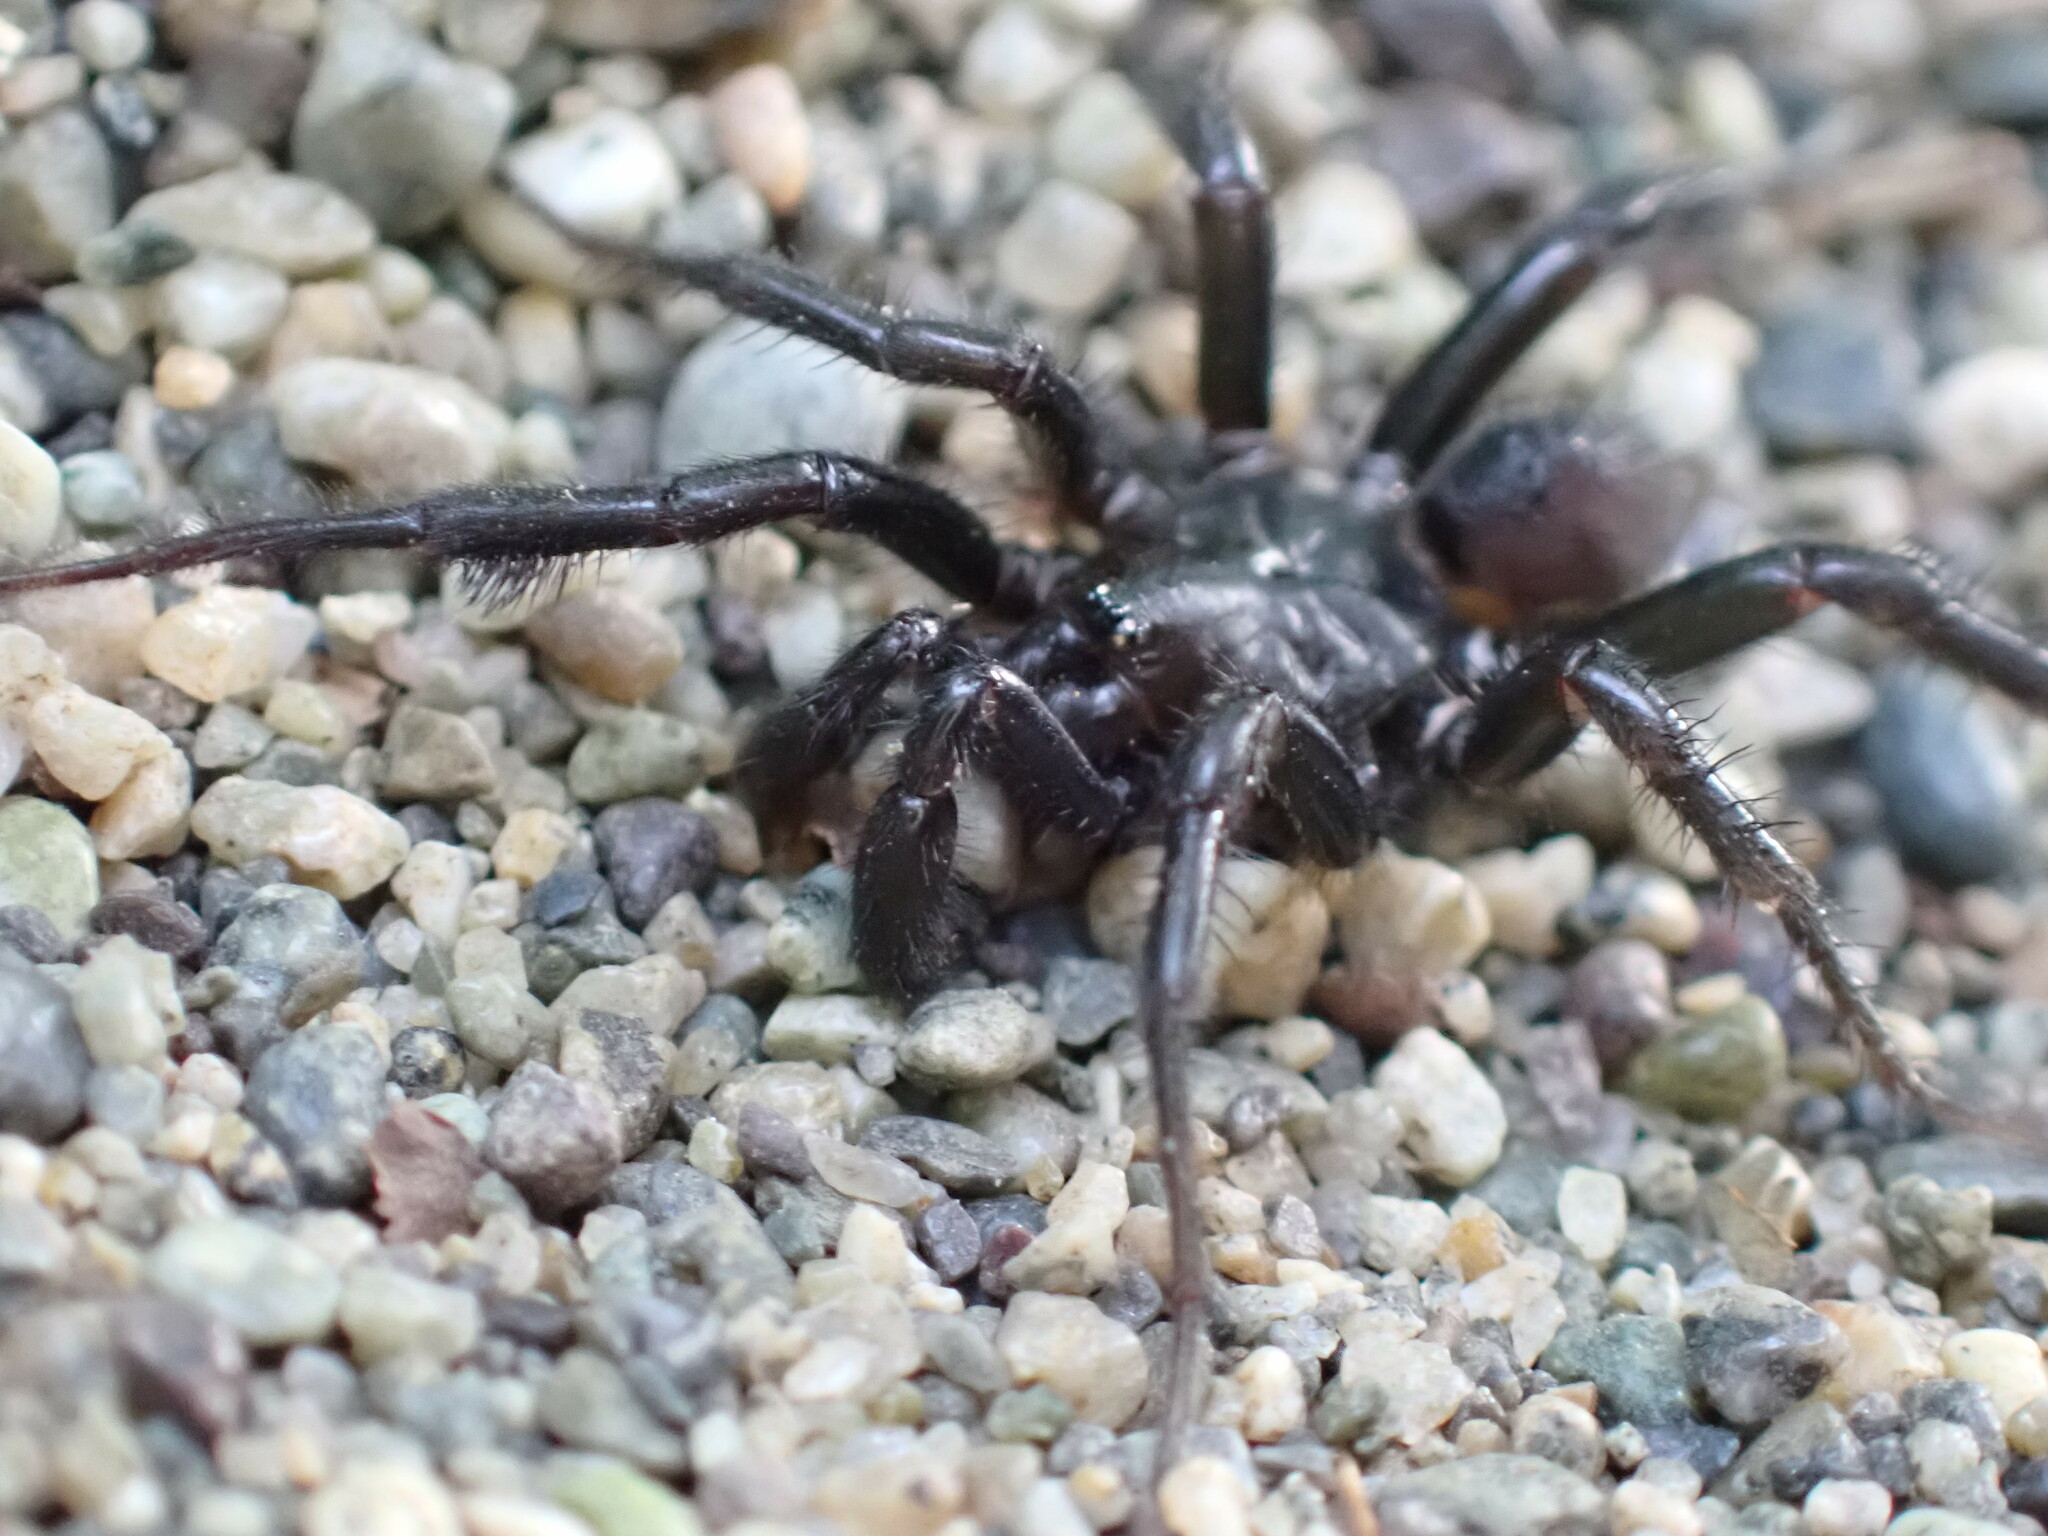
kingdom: Animalia
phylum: Arthropoda
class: Arachnida
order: Araneae
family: Antrodiaetidae
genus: Antrodiaetus
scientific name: Antrodiaetus pacificus
